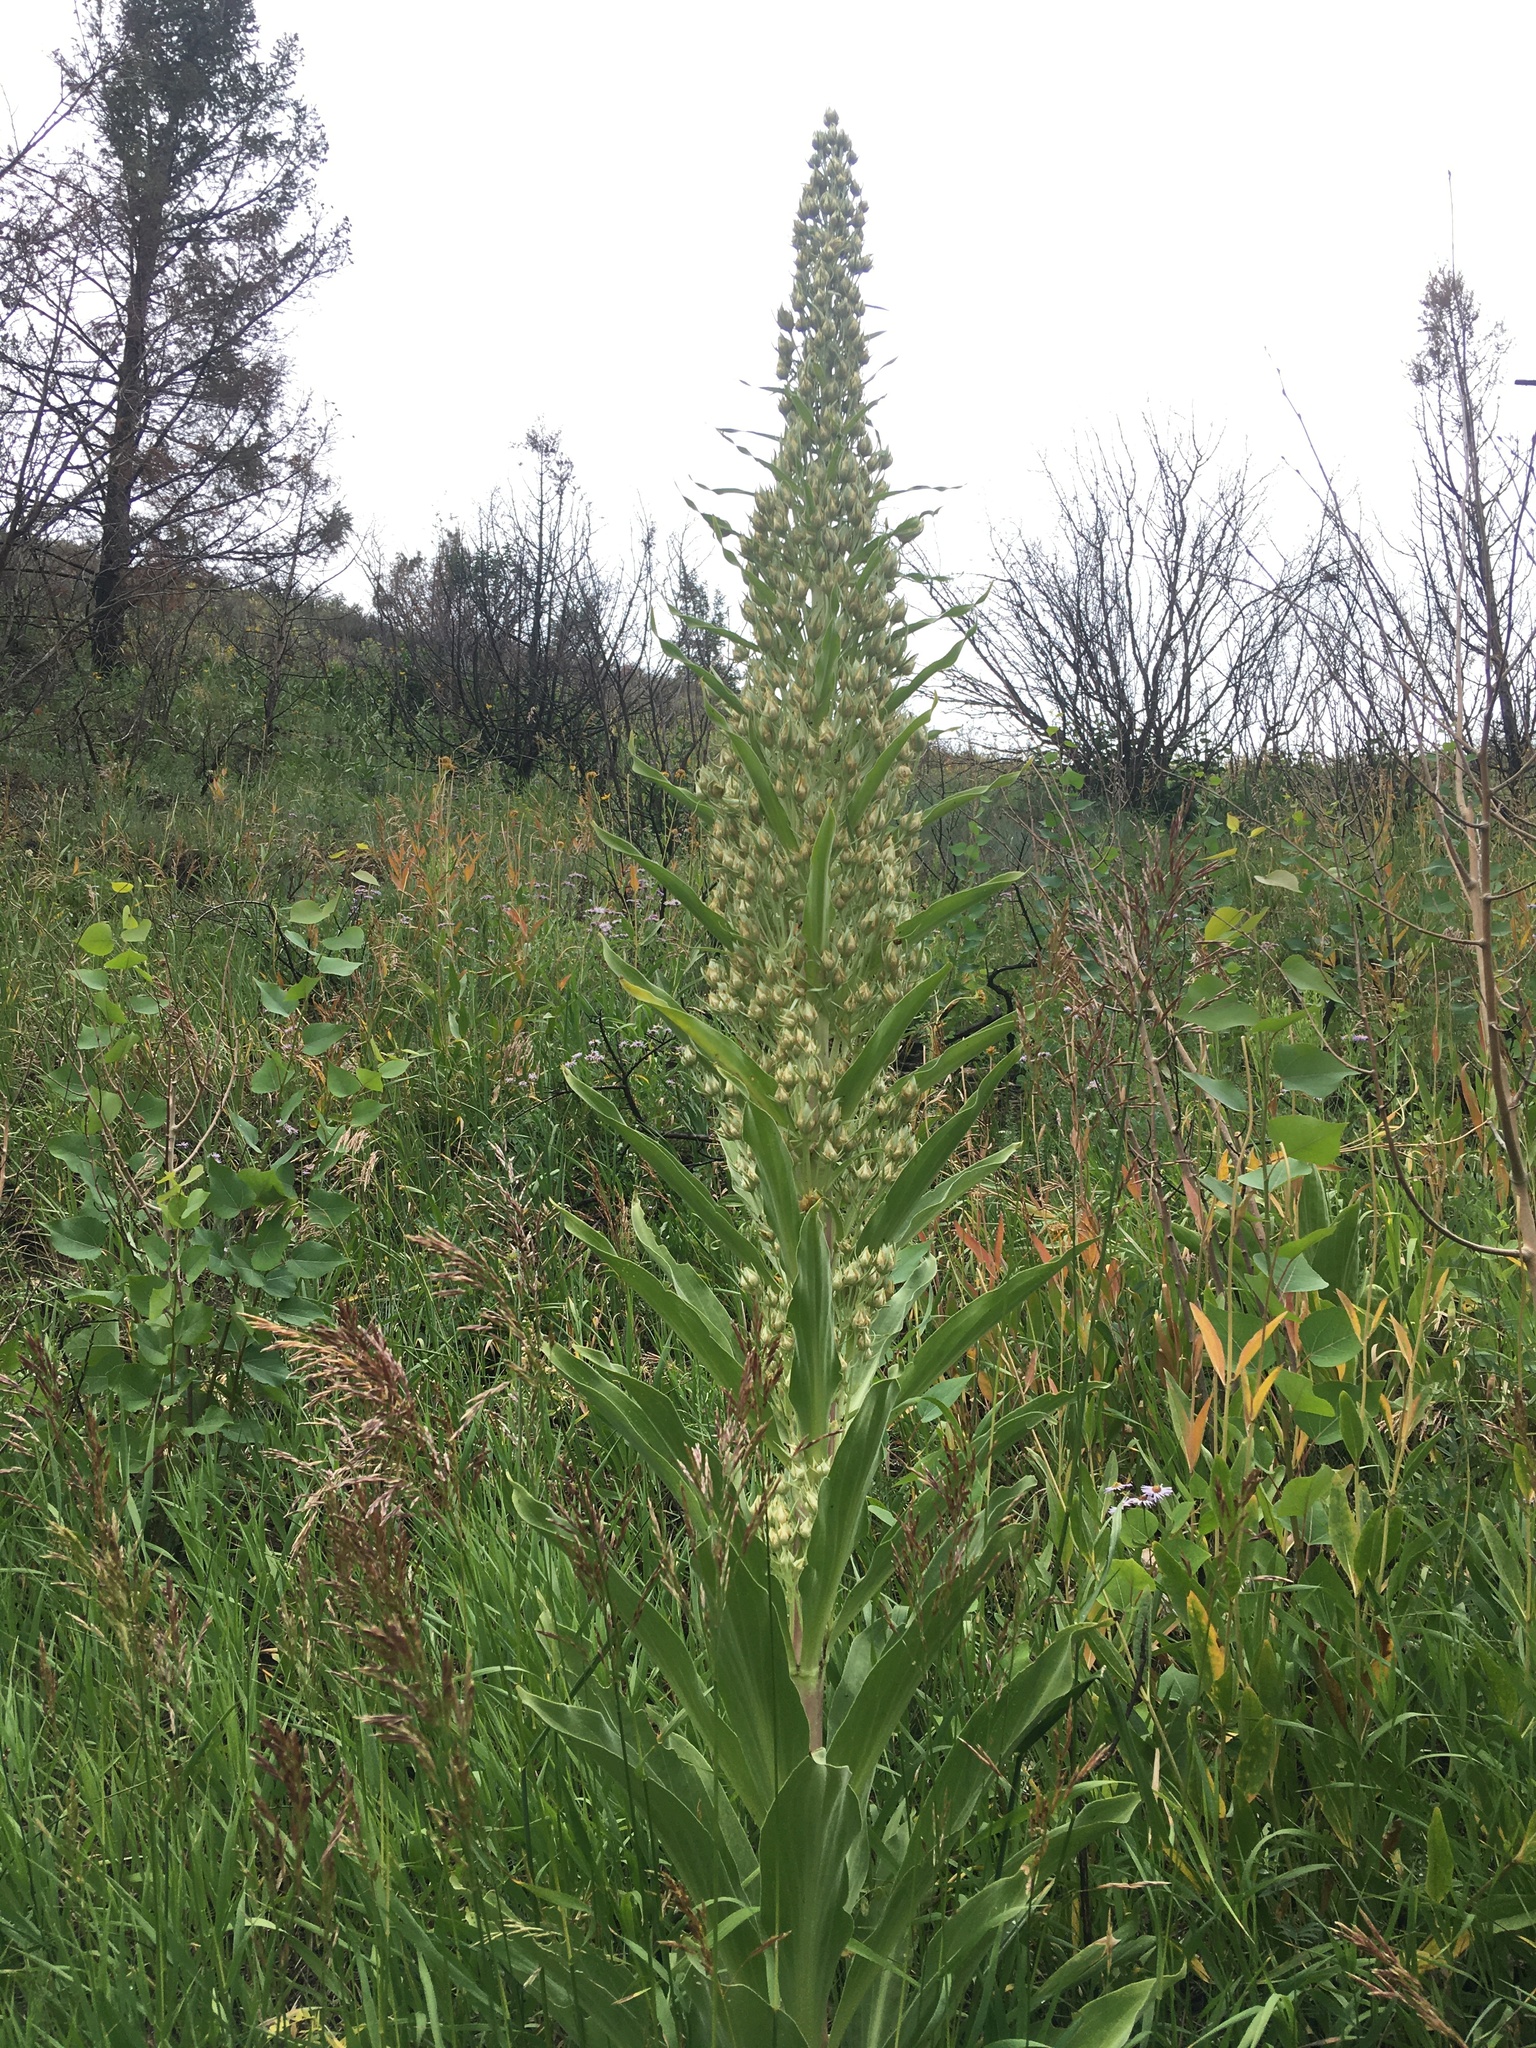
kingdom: Plantae
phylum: Tracheophyta
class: Magnoliopsida
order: Gentianales
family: Gentianaceae
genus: Frasera
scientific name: Frasera speciosa
